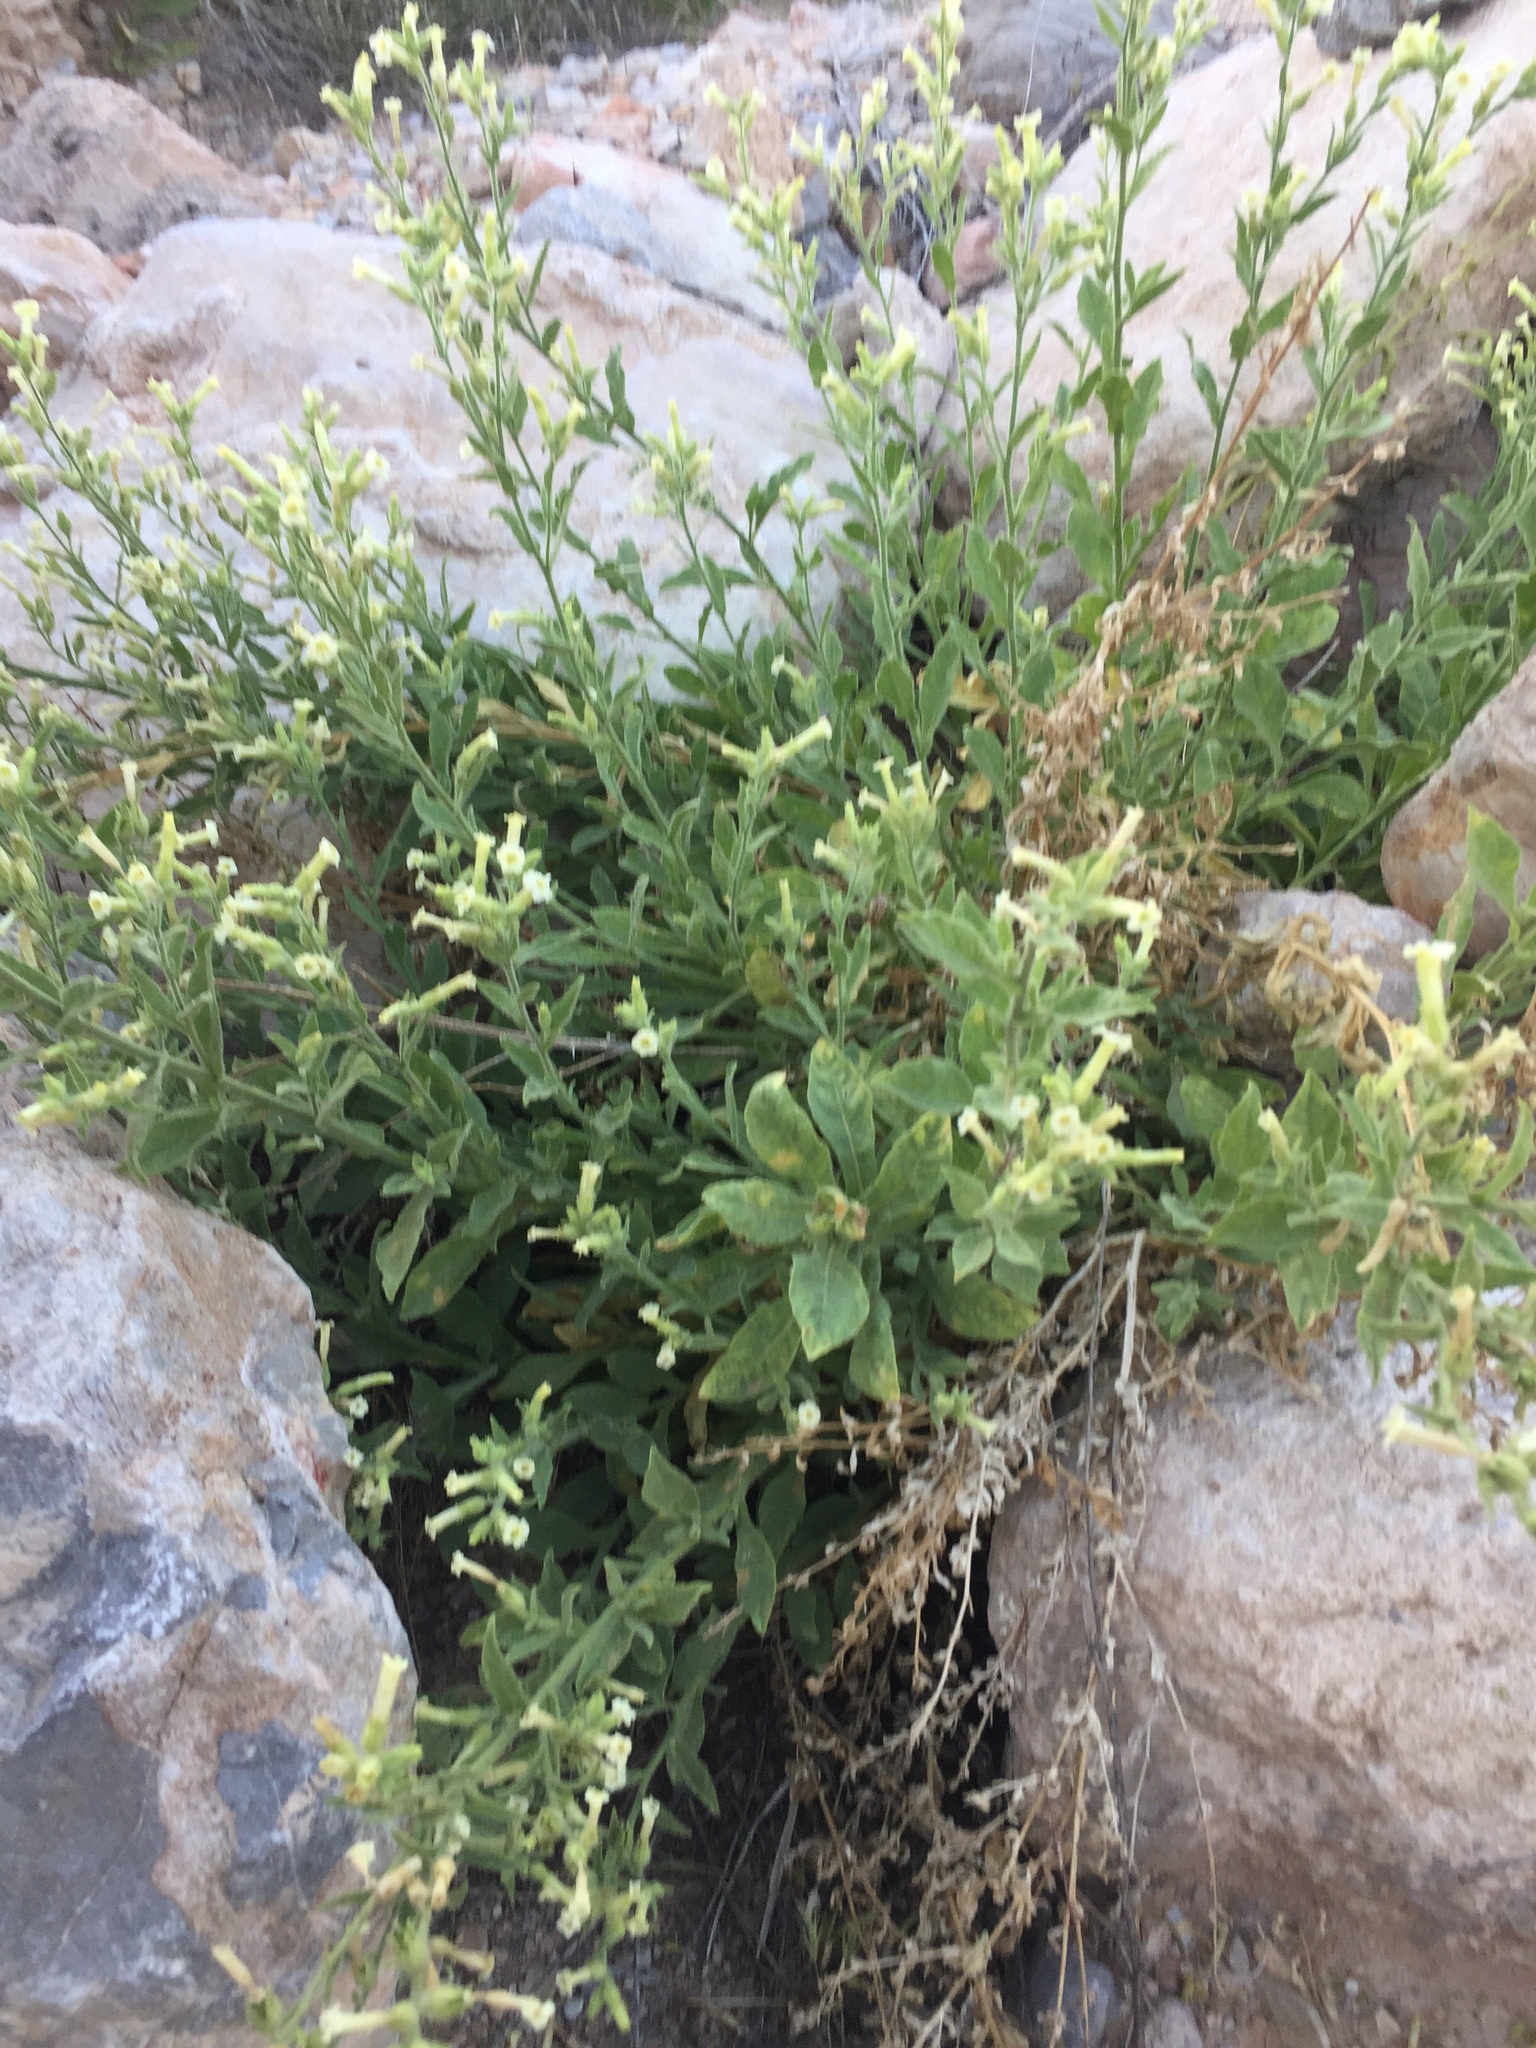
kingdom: Plantae
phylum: Tracheophyta
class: Magnoliopsida
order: Solanales
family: Solanaceae
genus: Nicotiana
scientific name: Nicotiana obtusifolia
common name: Desert tobacco
